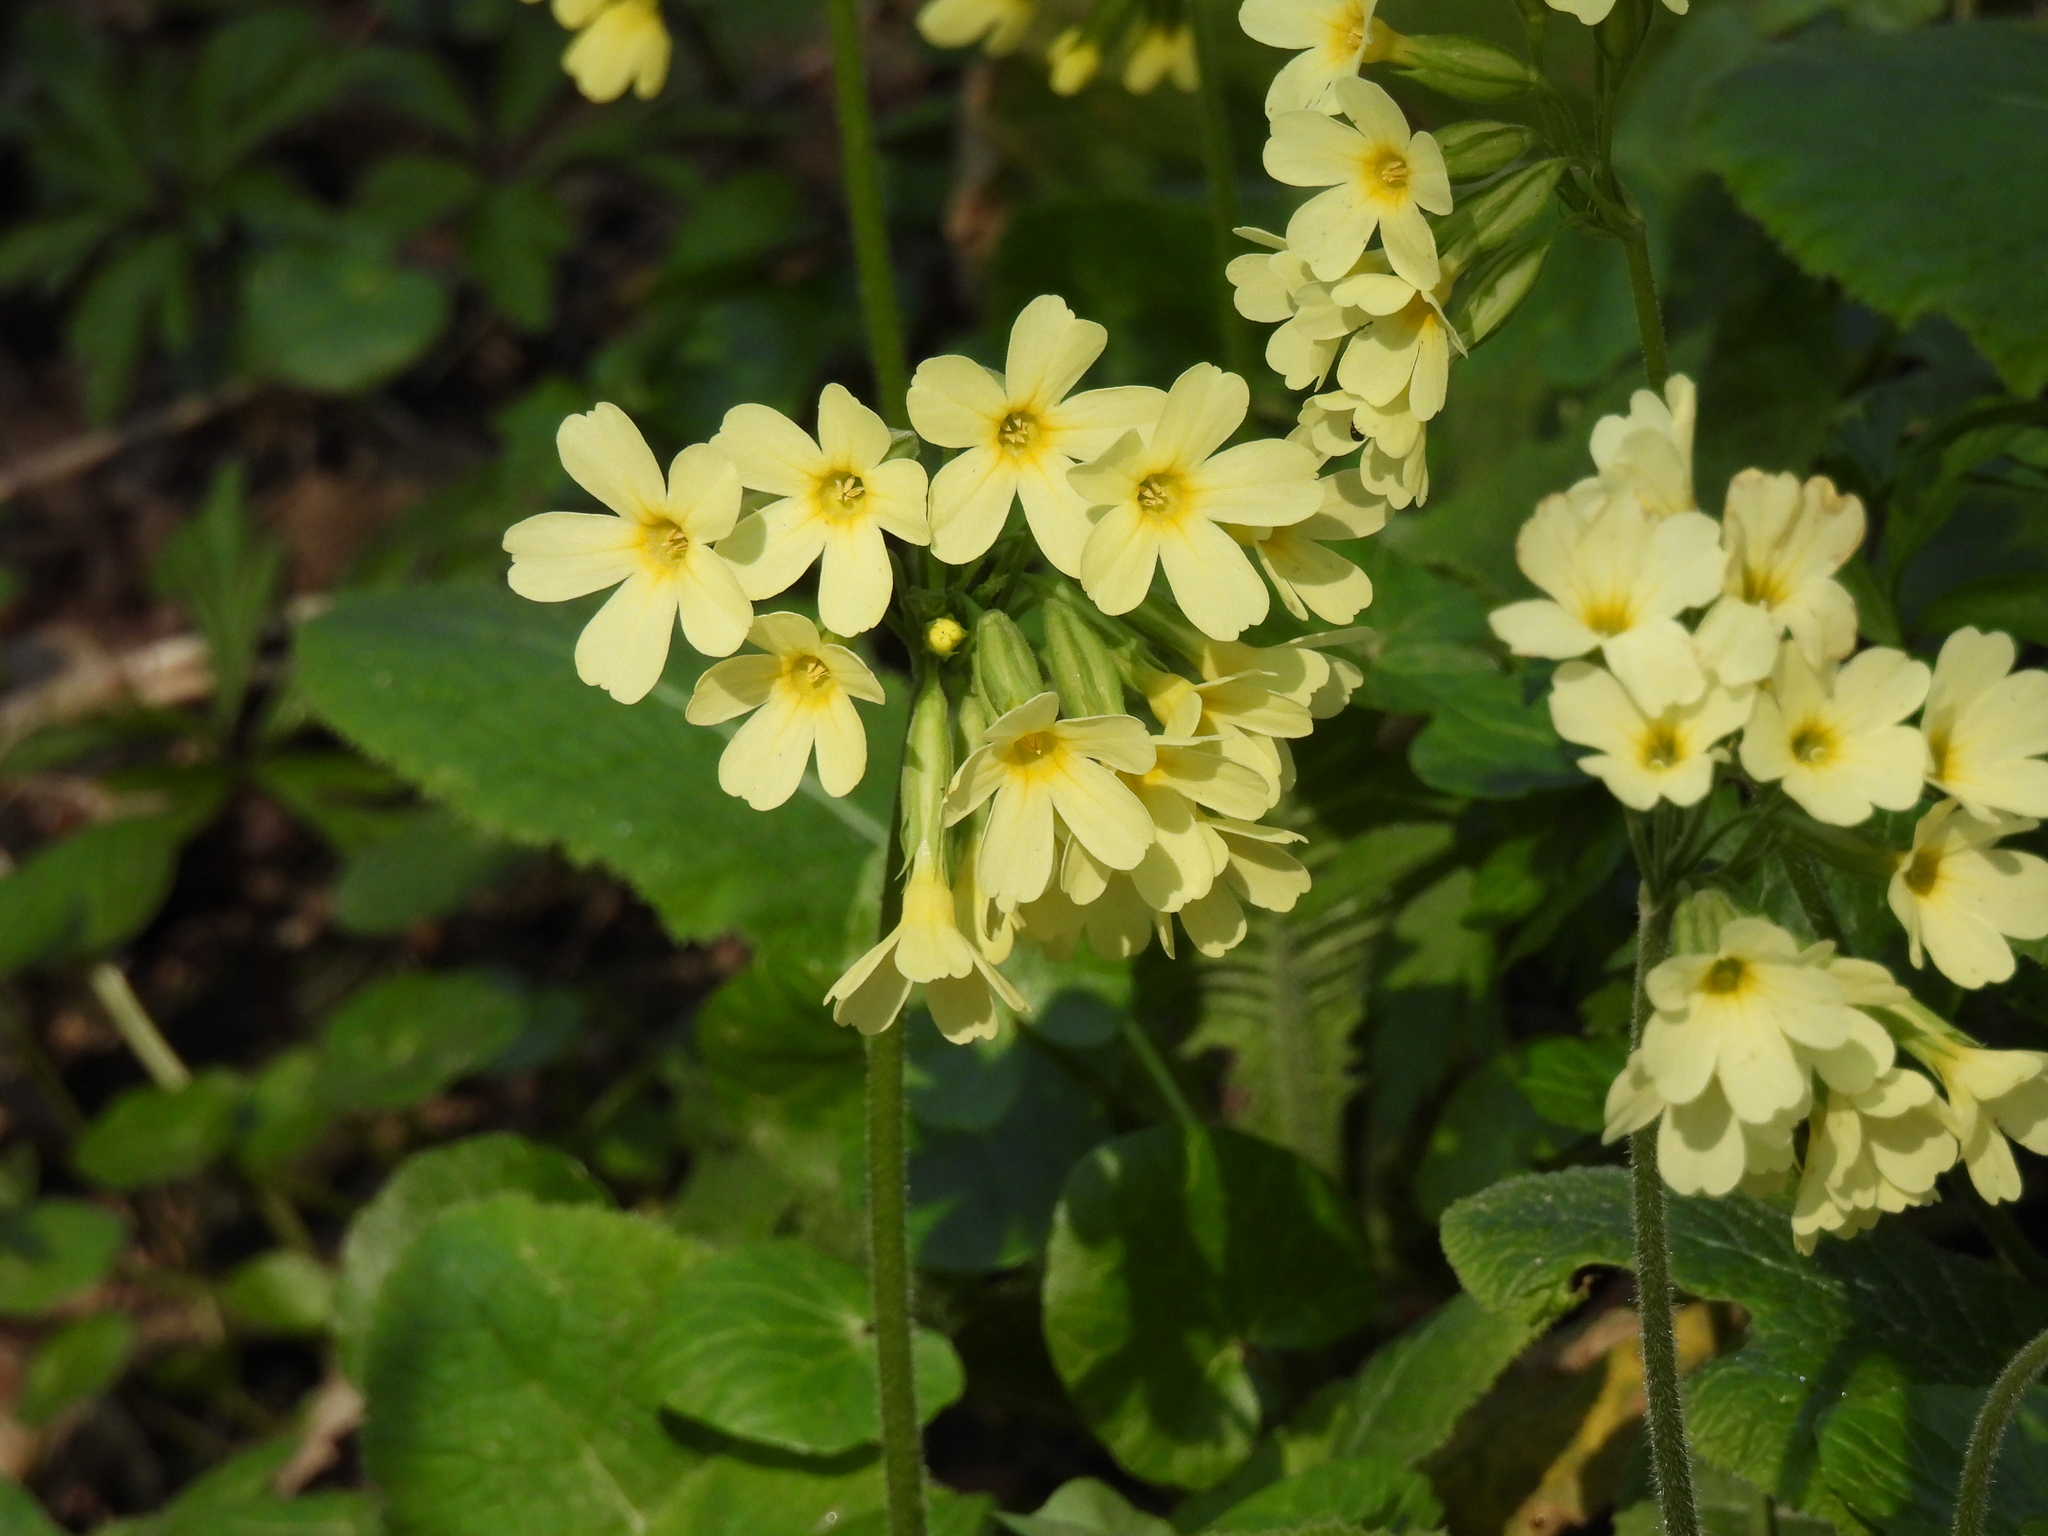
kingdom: Plantae
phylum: Tracheophyta
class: Magnoliopsida
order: Ericales
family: Primulaceae
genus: Primula
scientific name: Primula elatior
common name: Oxlip
